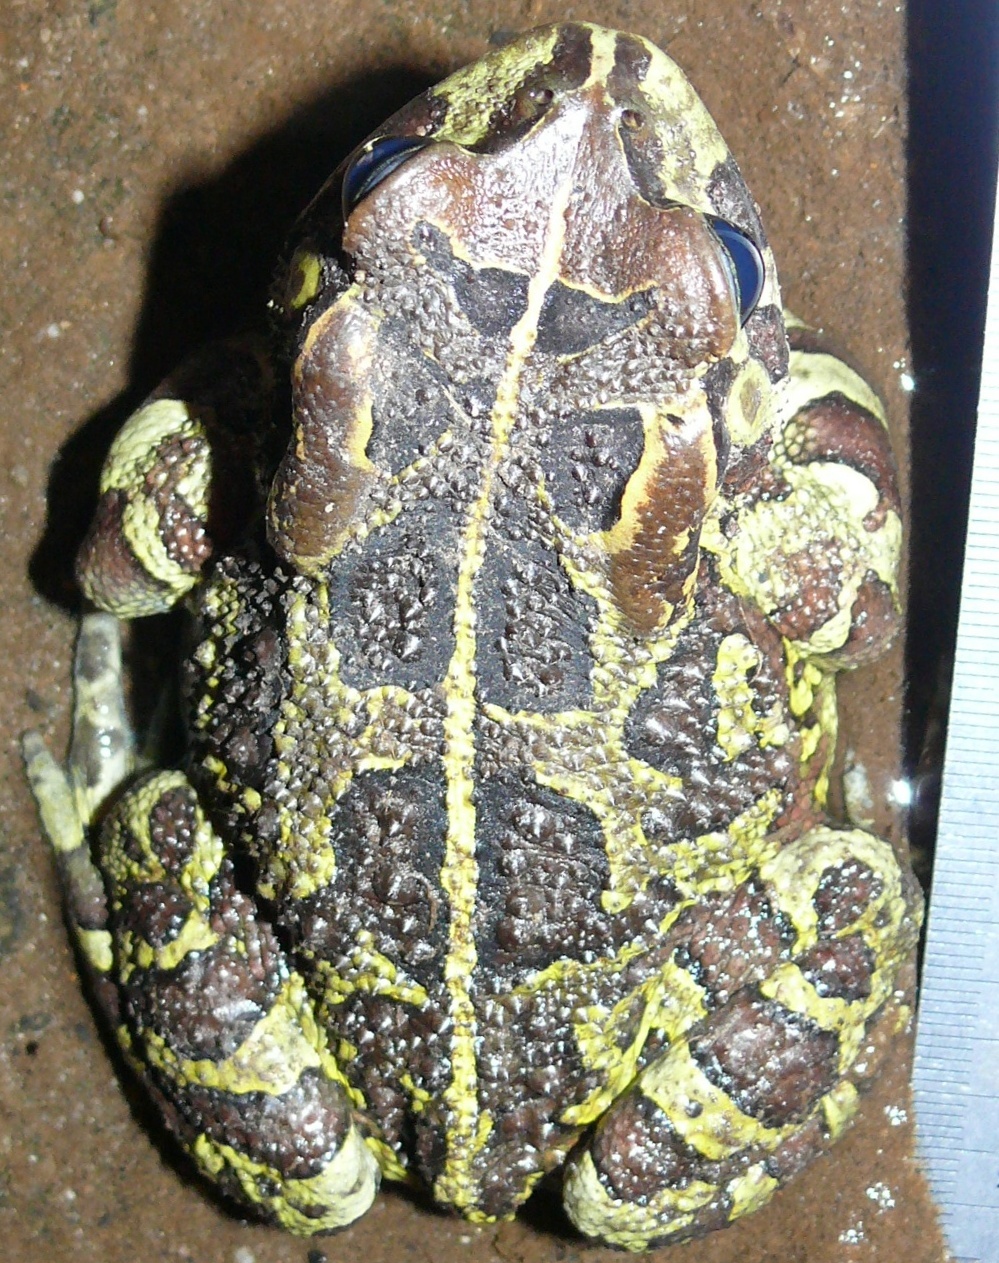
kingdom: Animalia
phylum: Chordata
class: Amphibia
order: Anura
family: Bufonidae
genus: Sclerophrys
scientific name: Sclerophrys pantherina
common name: Panther toad
